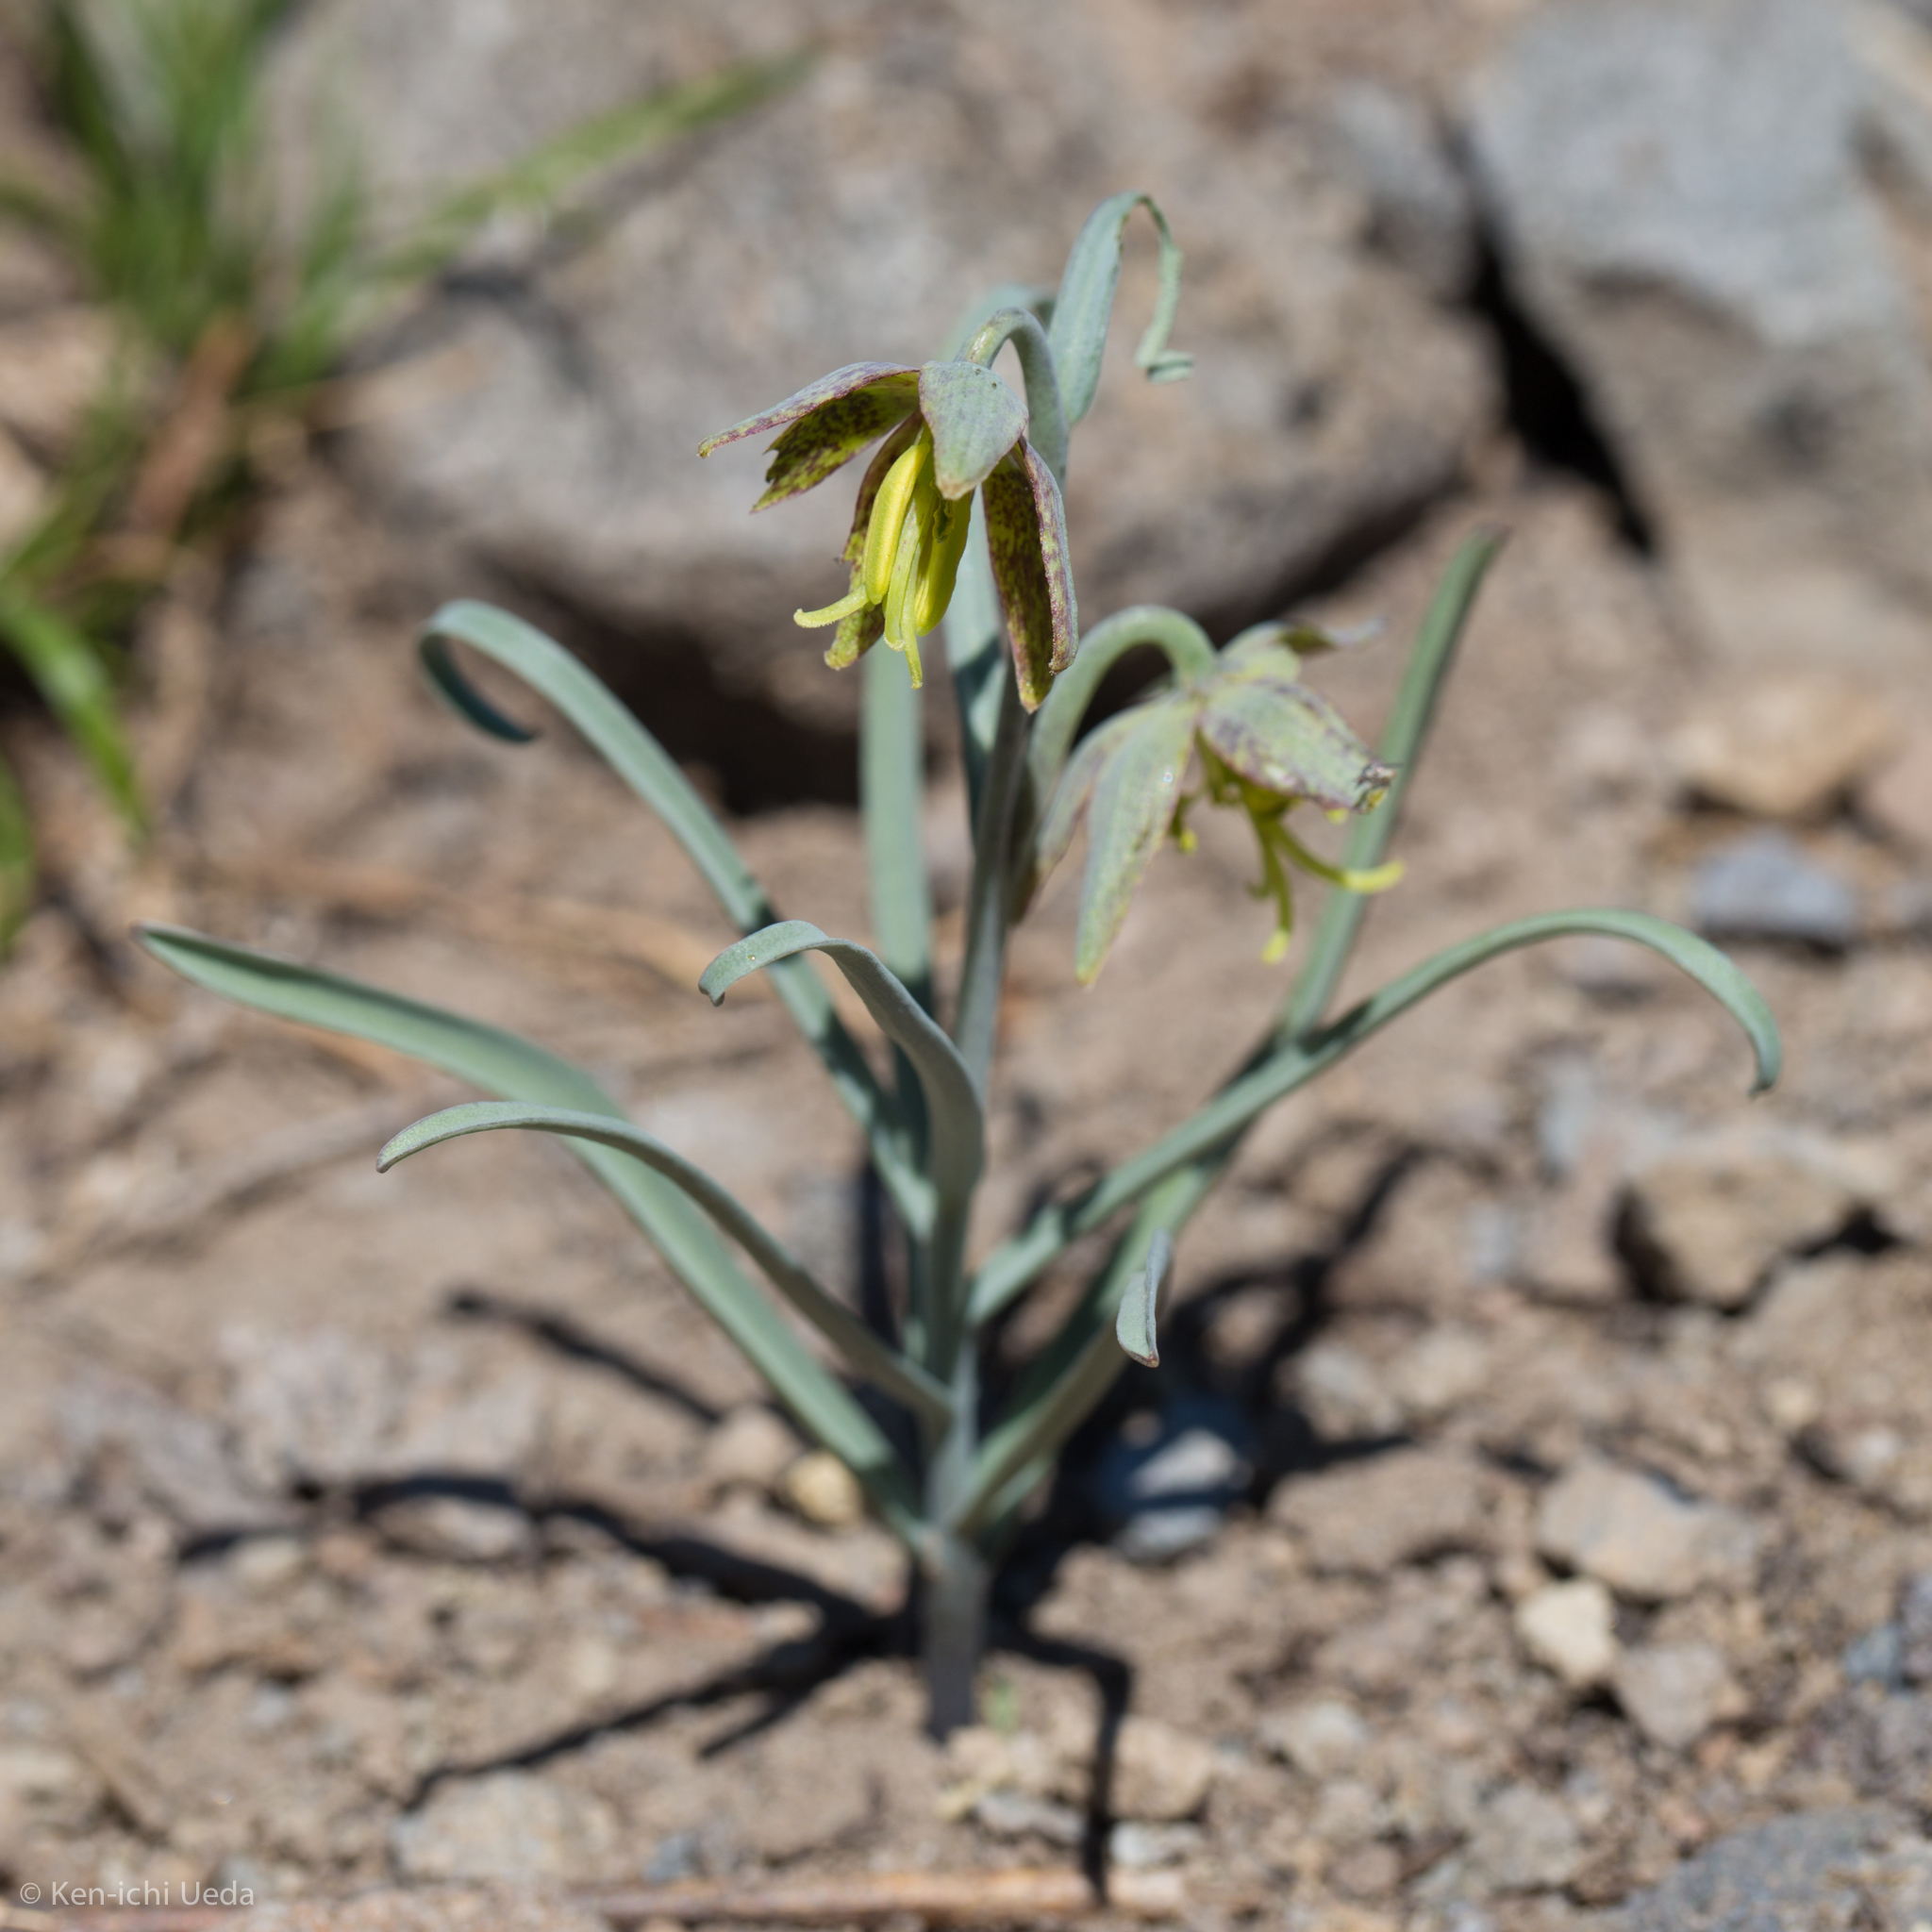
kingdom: Plantae
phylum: Tracheophyta
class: Liliopsida
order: Liliales
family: Liliaceae
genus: Fritillaria
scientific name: Fritillaria atropurpurea
